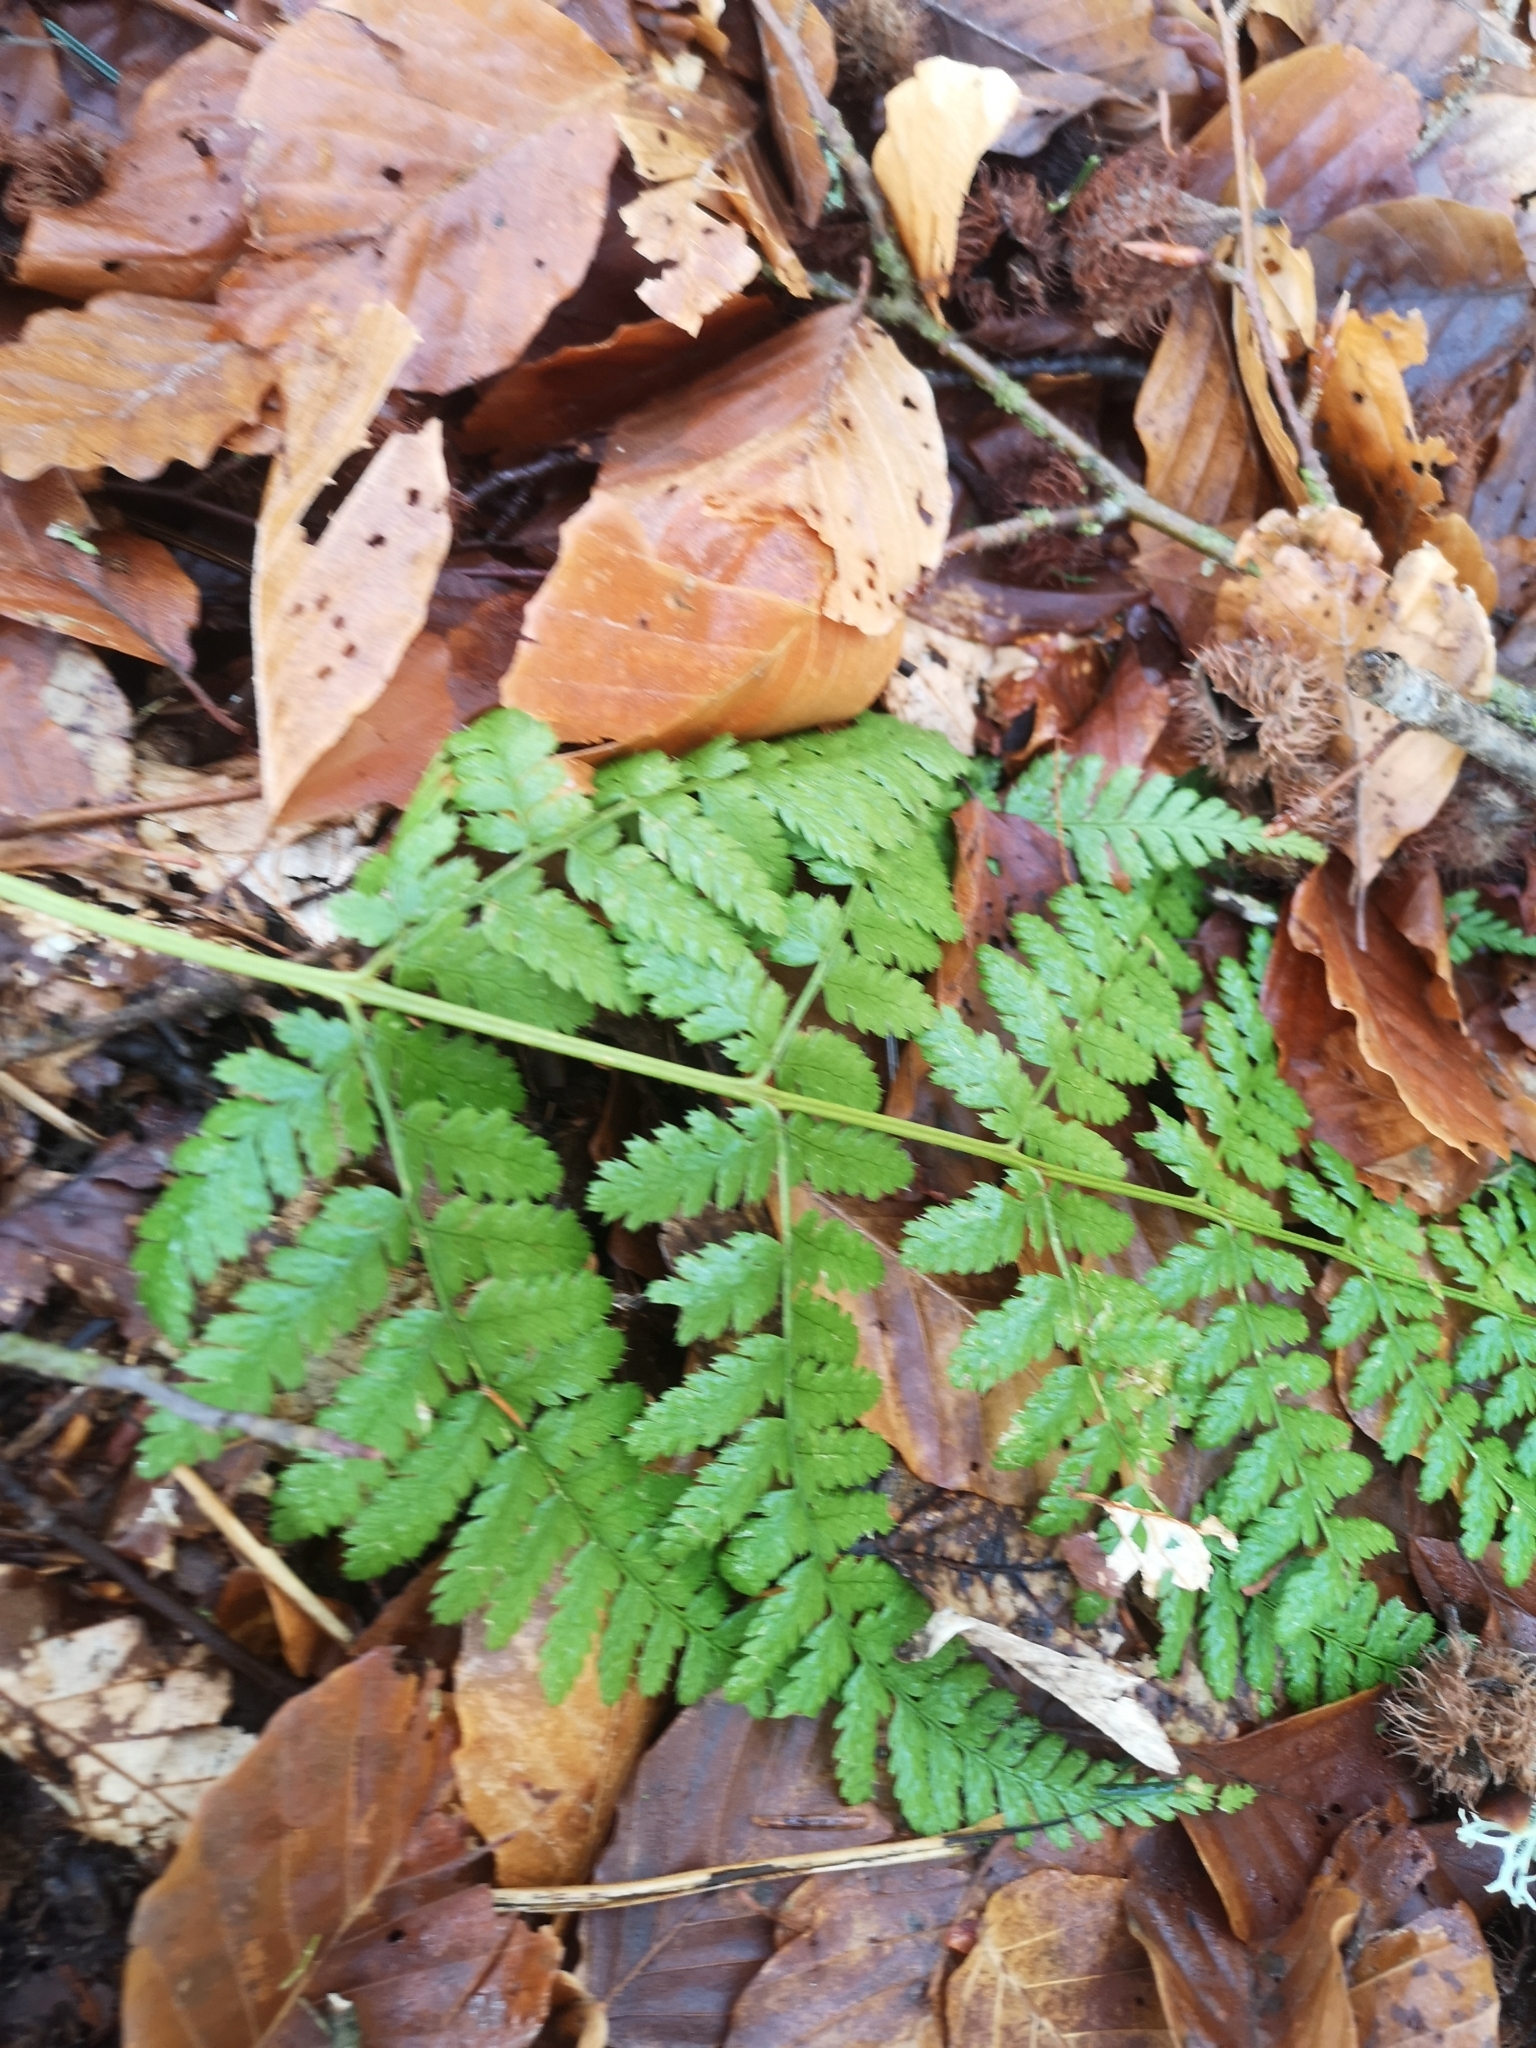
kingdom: Plantae
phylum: Tracheophyta
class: Polypodiopsida
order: Polypodiales
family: Dryopteridaceae
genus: Dryopteris
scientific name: Dryopteris dilatata
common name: Broad buckler-fern
